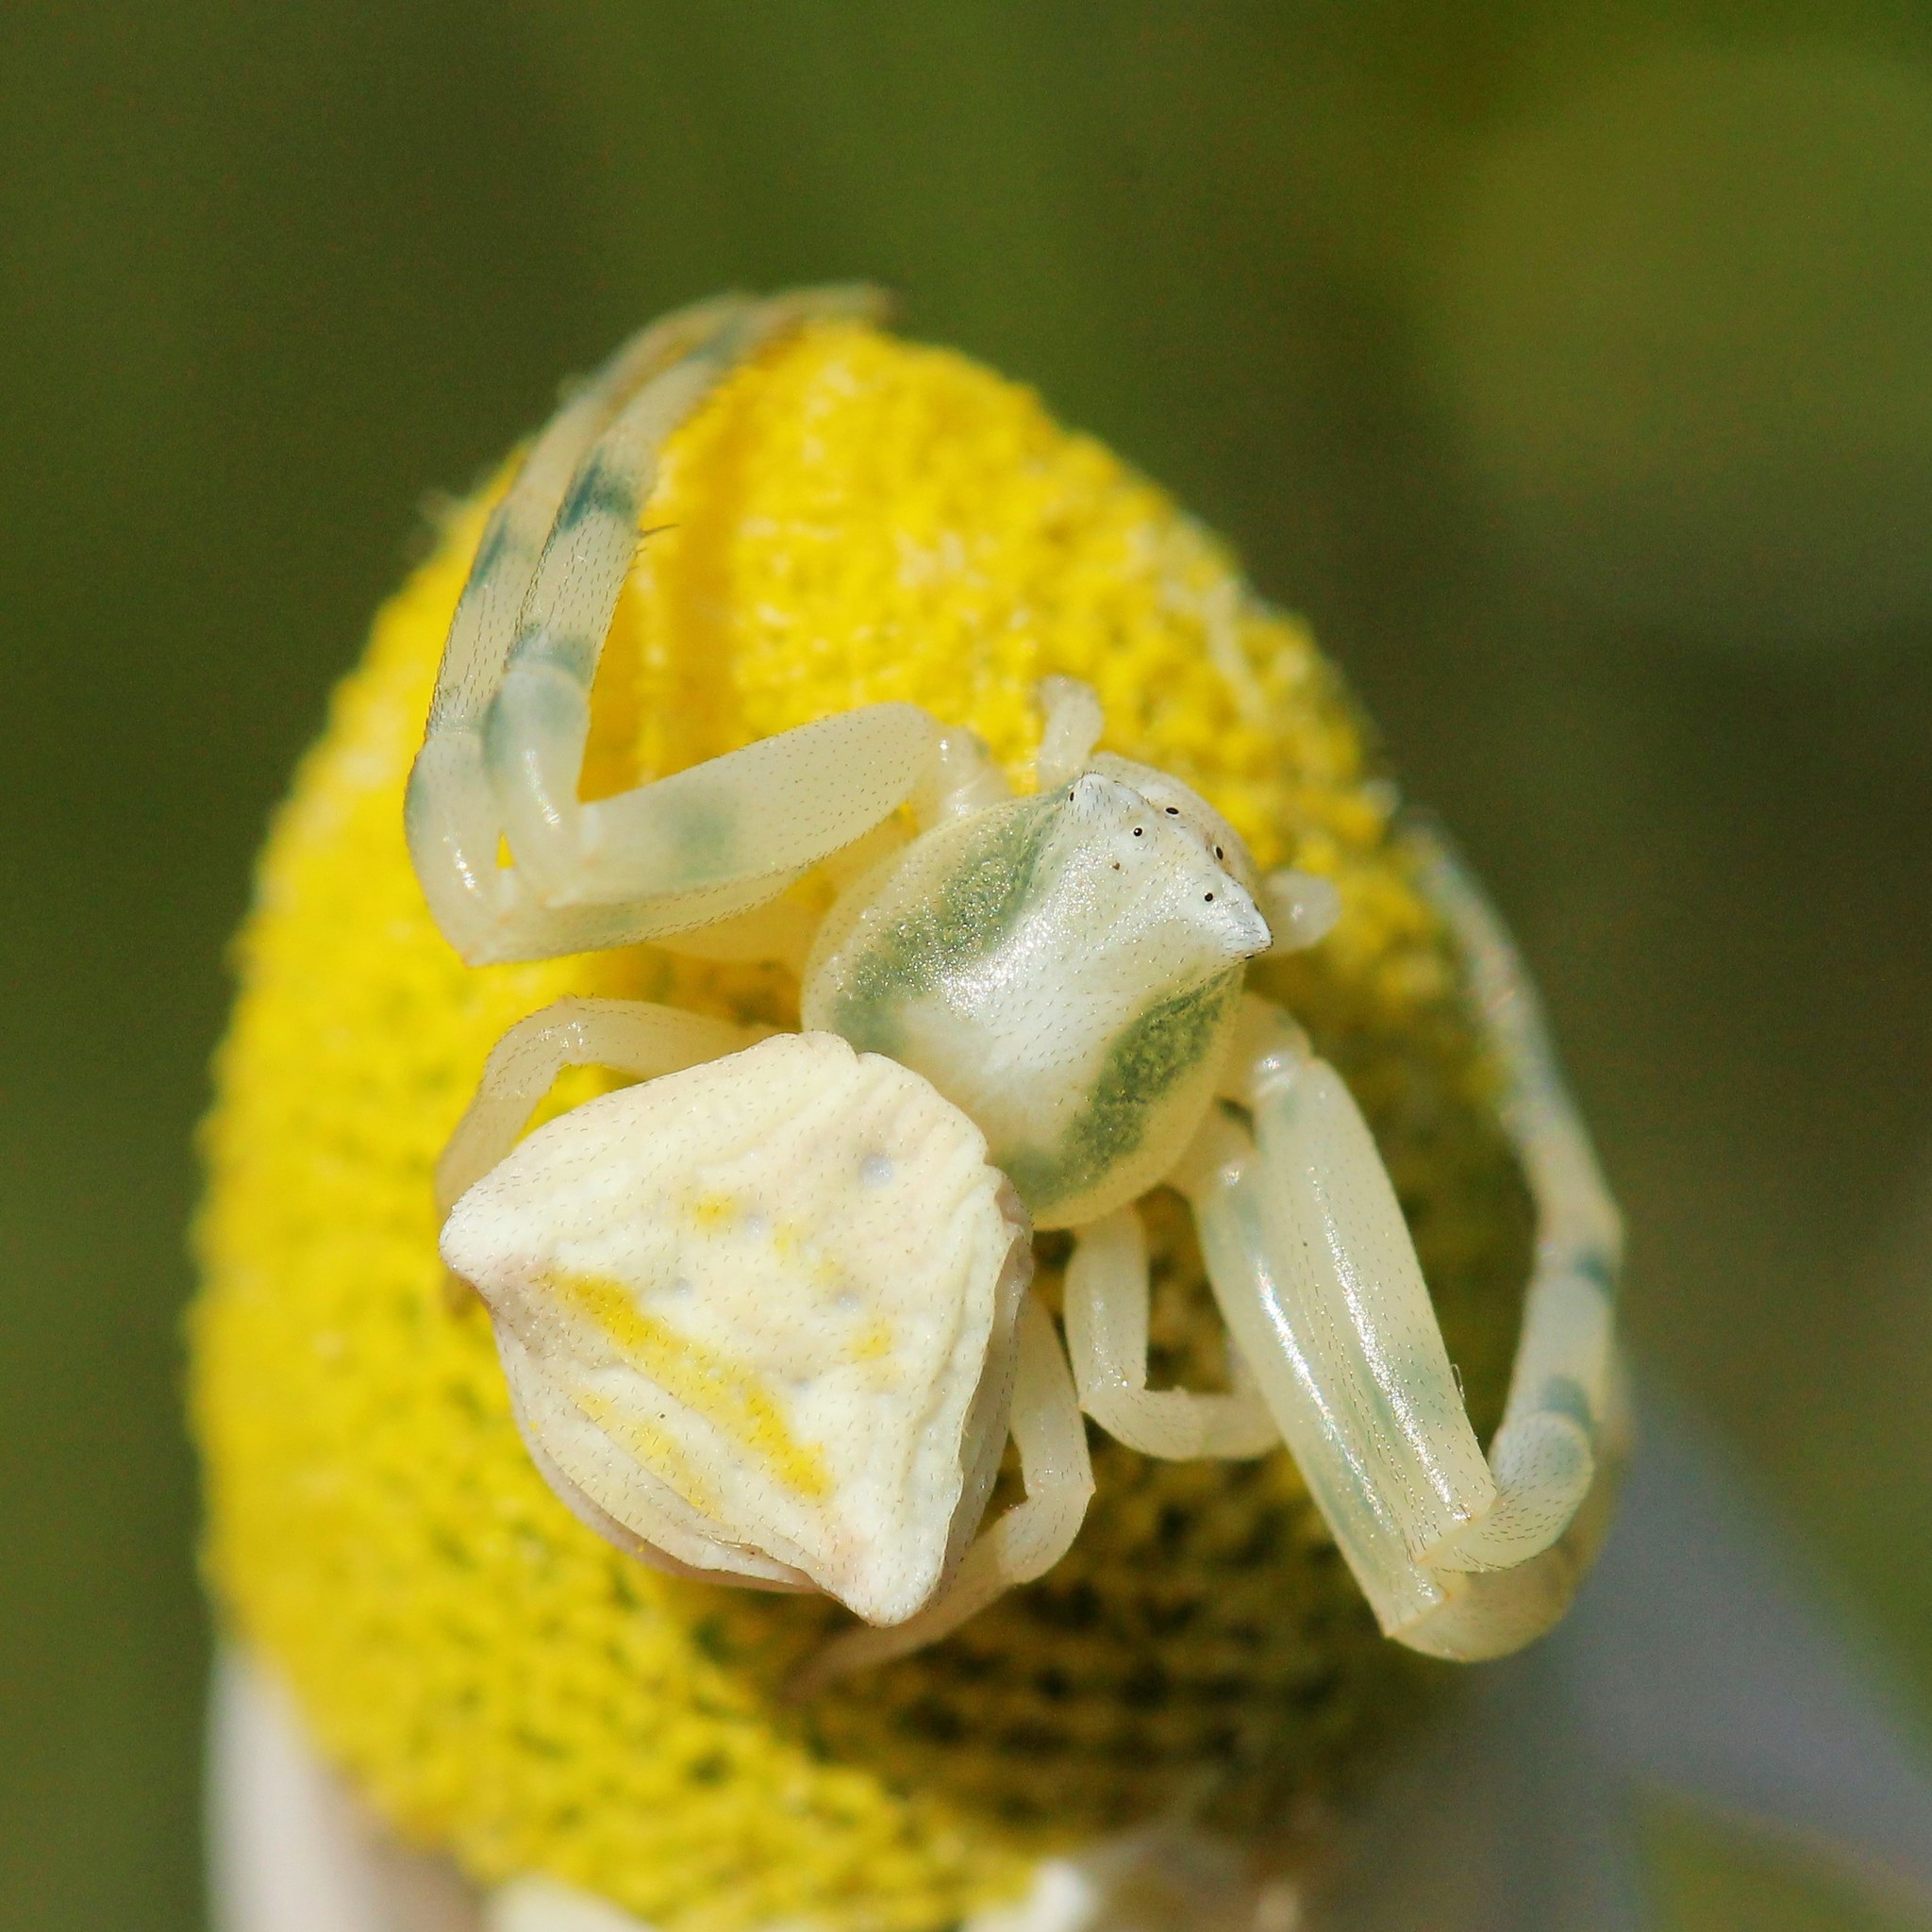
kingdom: Animalia
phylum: Arthropoda
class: Arachnida
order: Araneae
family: Thomisidae
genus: Thomisus
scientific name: Thomisus onustus
